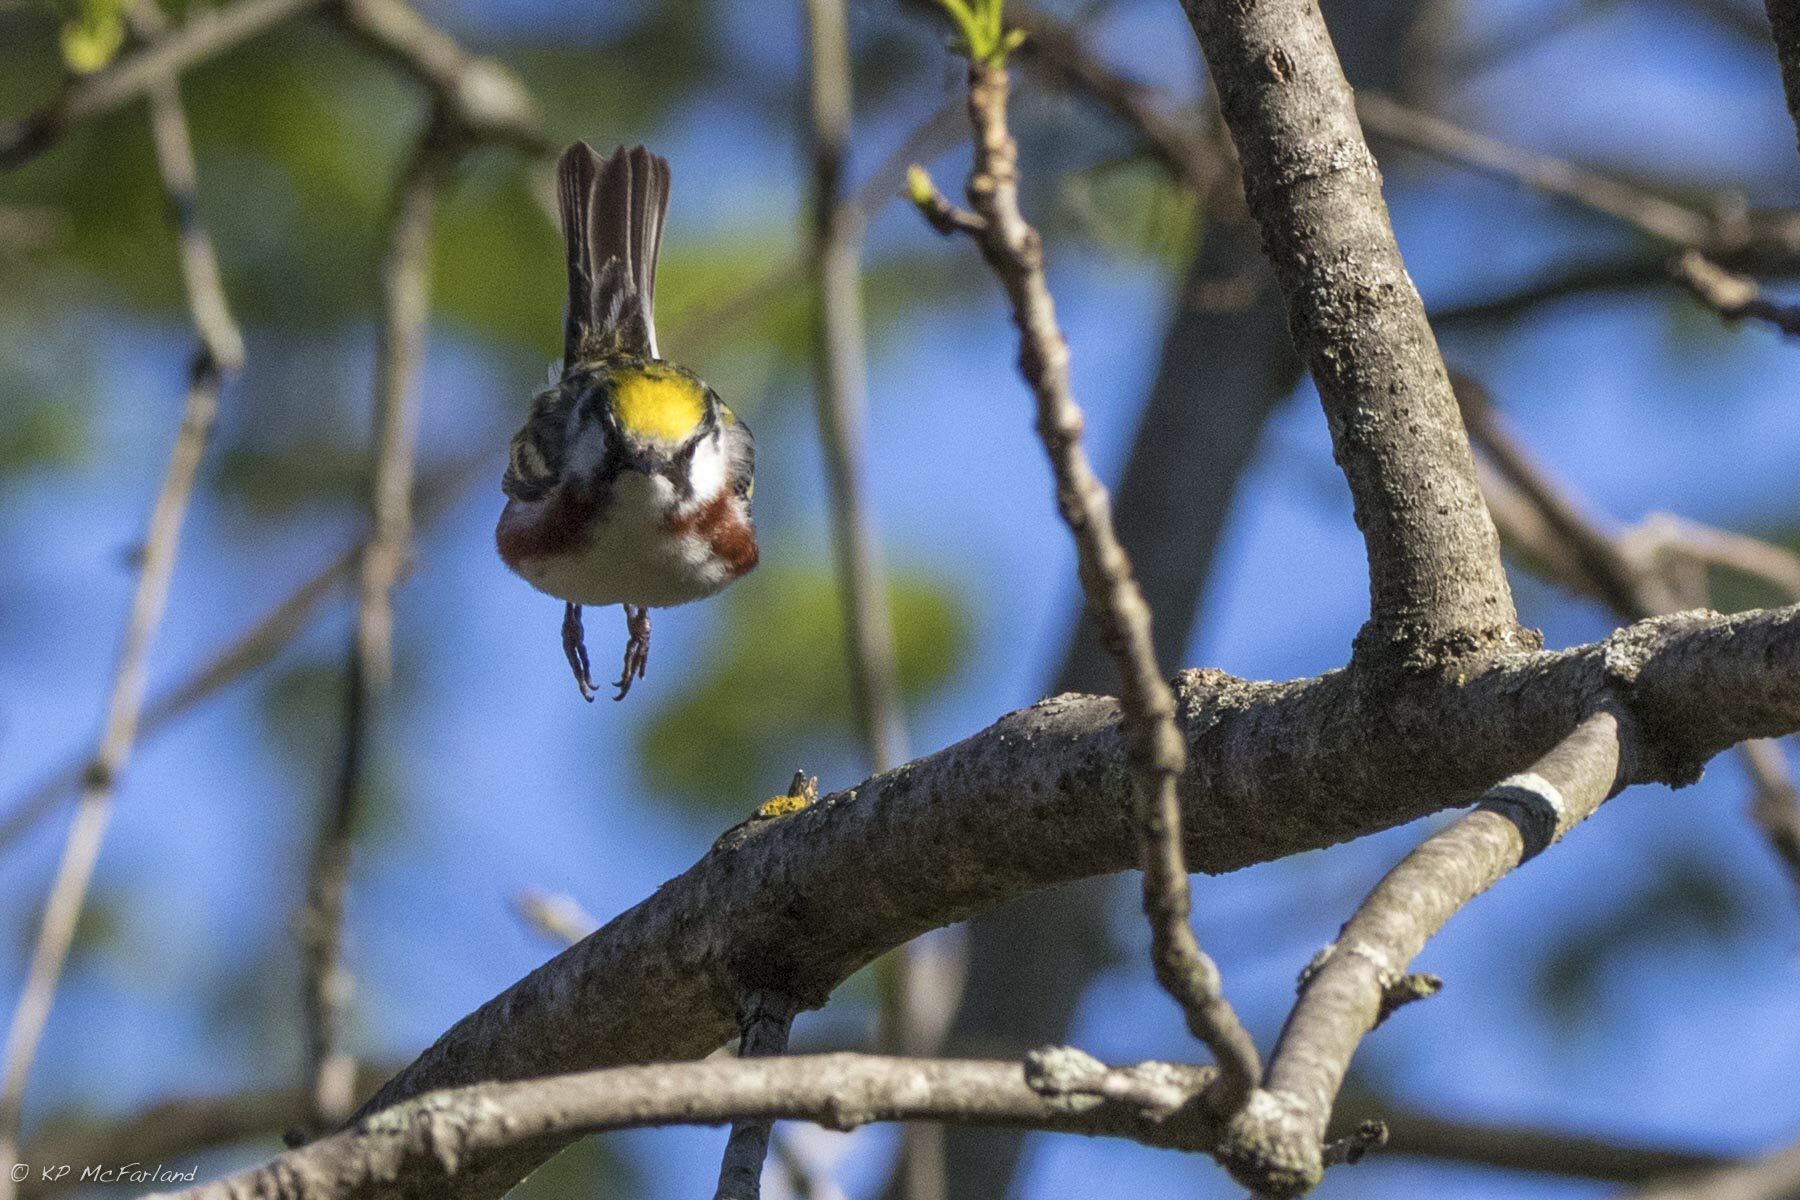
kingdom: Animalia
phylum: Chordata
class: Aves
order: Passeriformes
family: Parulidae
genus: Setophaga
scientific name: Setophaga pensylvanica
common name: Chestnut-sided warbler
